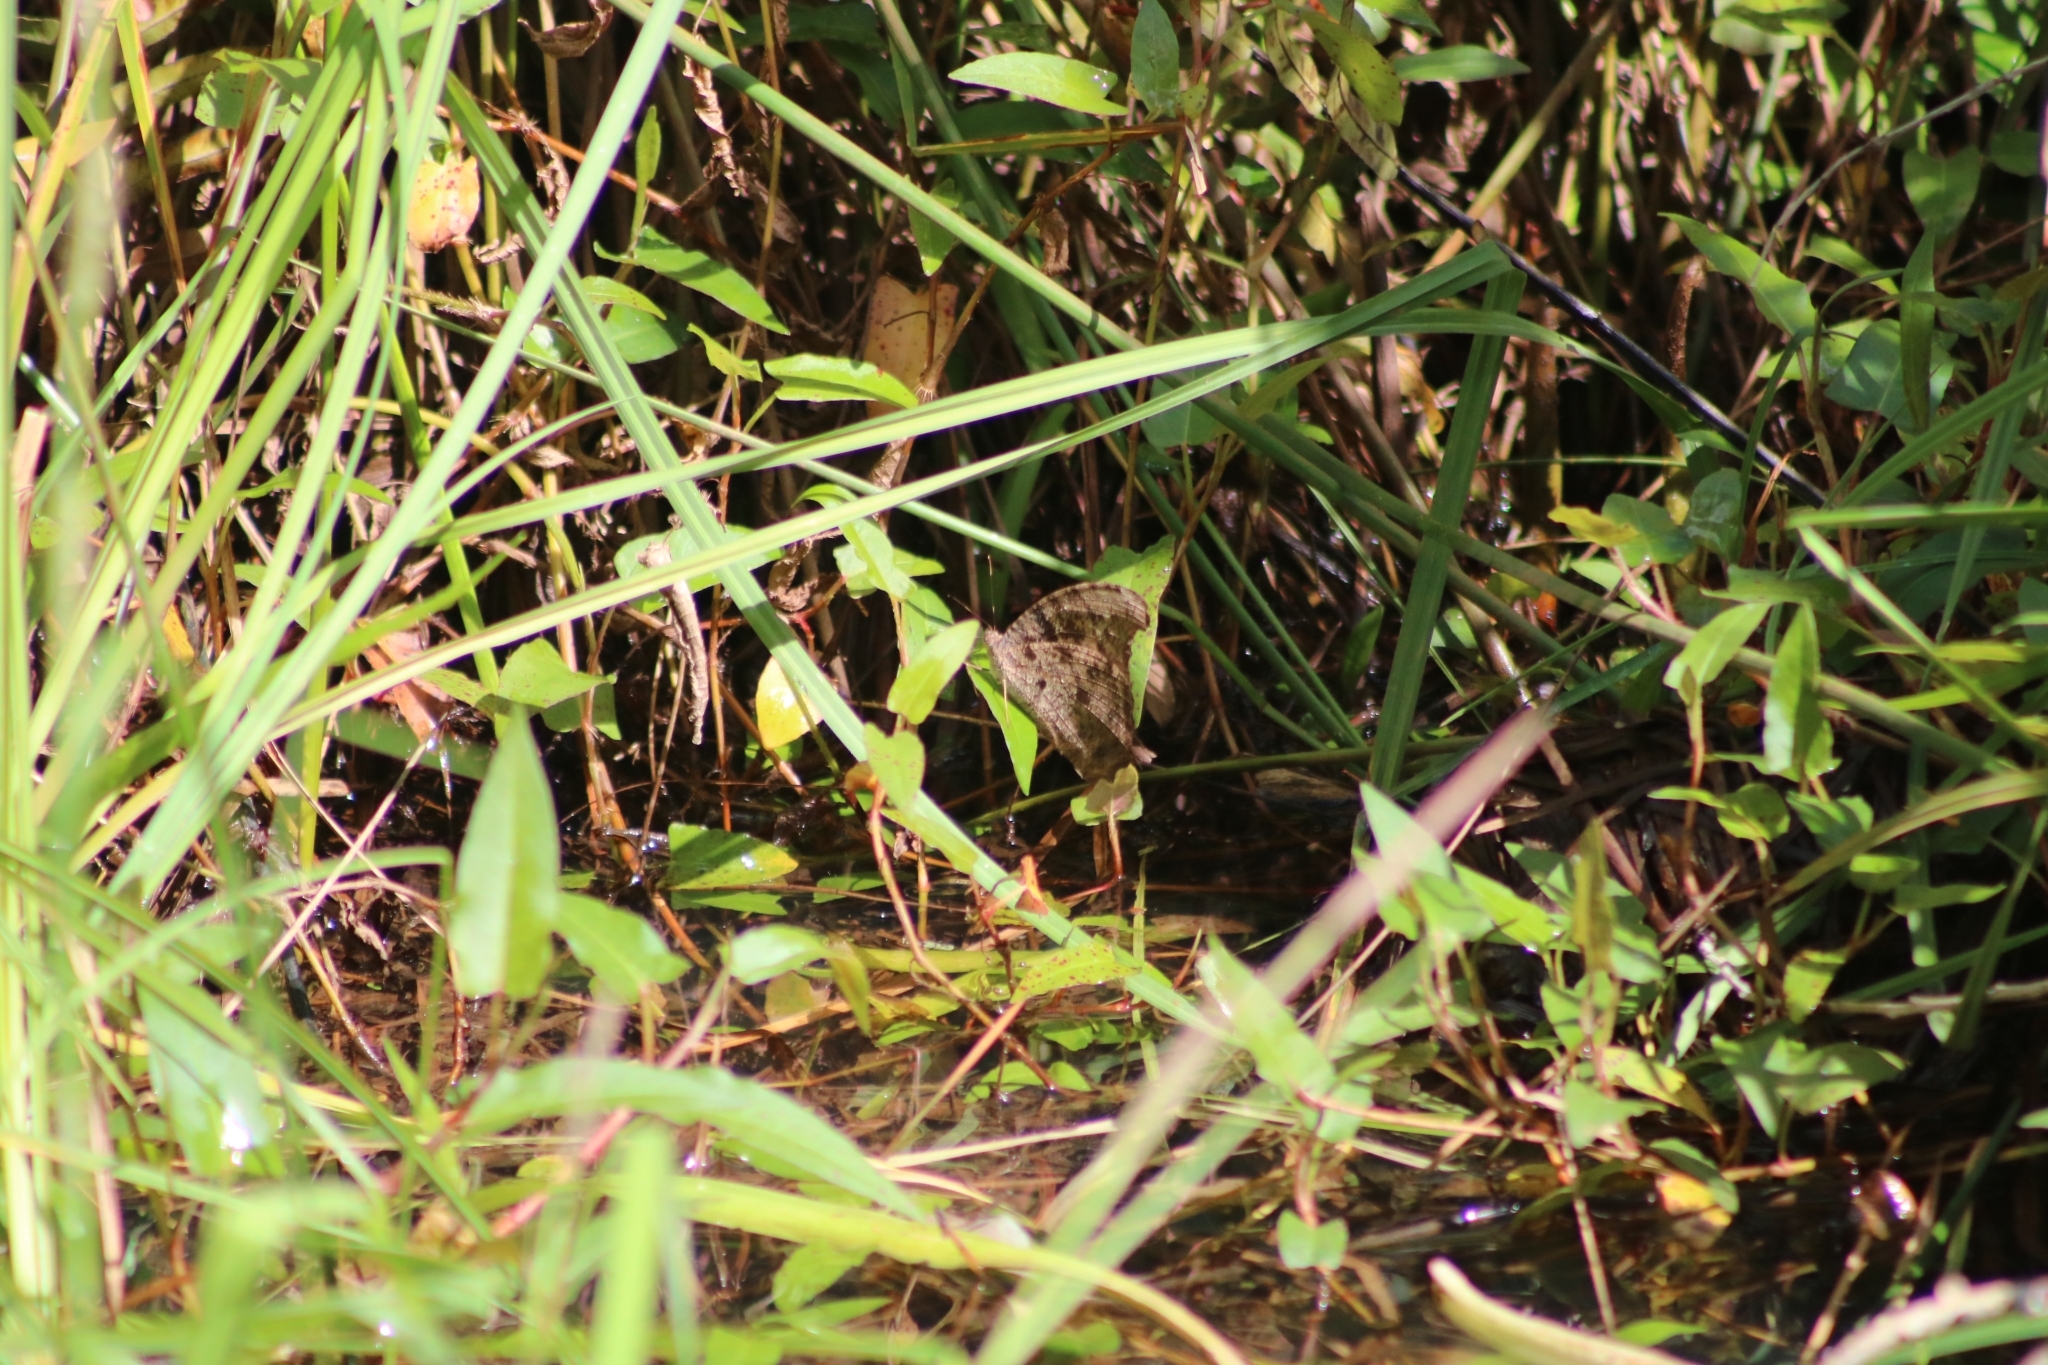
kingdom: Animalia
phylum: Arthropoda
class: Insecta
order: Lepidoptera
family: Nymphalidae
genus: Melanitis
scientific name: Melanitis leda
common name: Twilight brown
